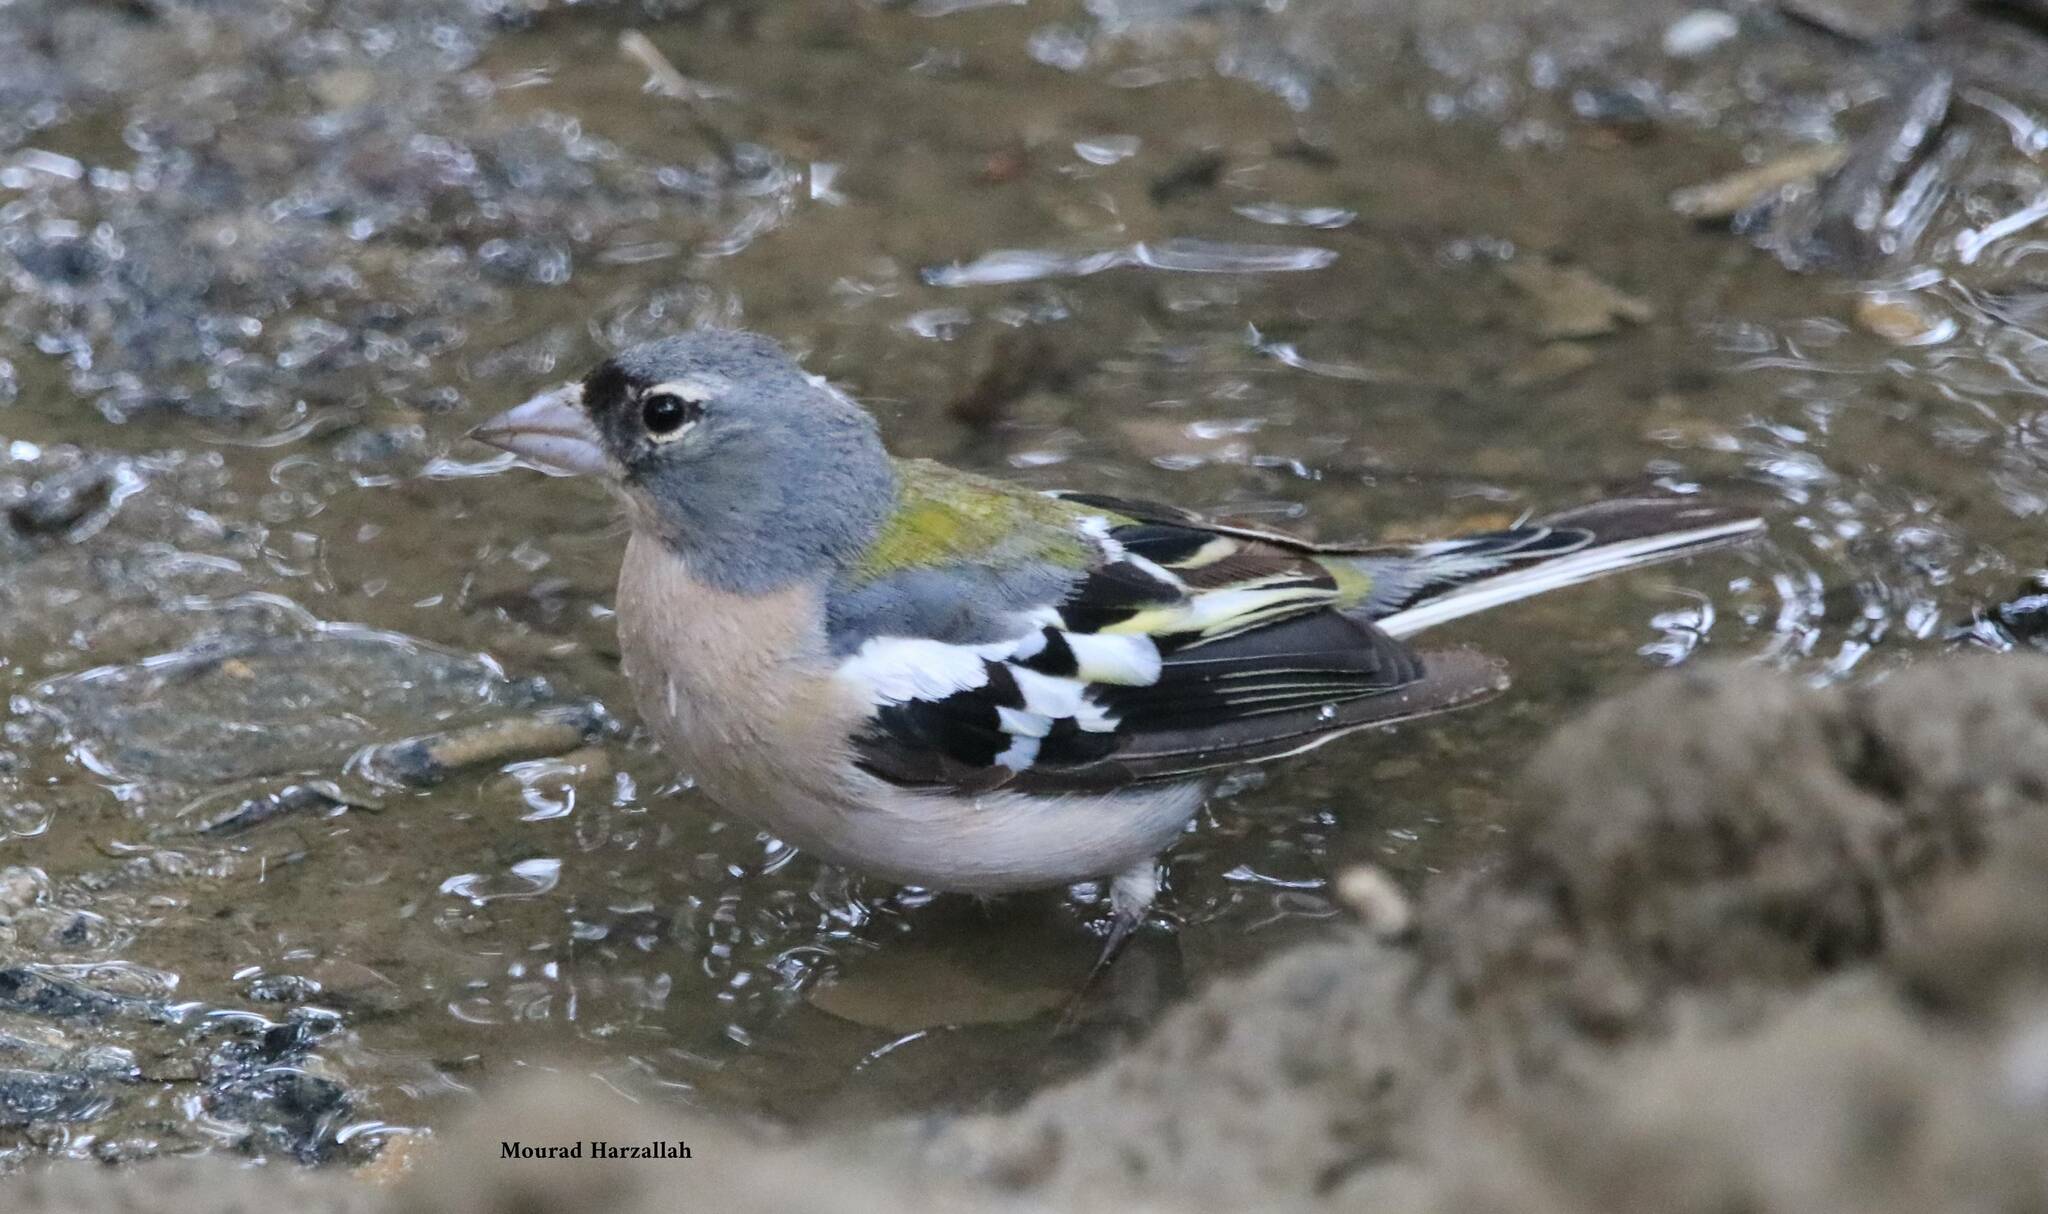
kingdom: Animalia
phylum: Chordata
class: Aves
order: Passeriformes
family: Fringillidae
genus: Fringilla
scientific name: Fringilla spodiogenys
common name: African chaffinch
